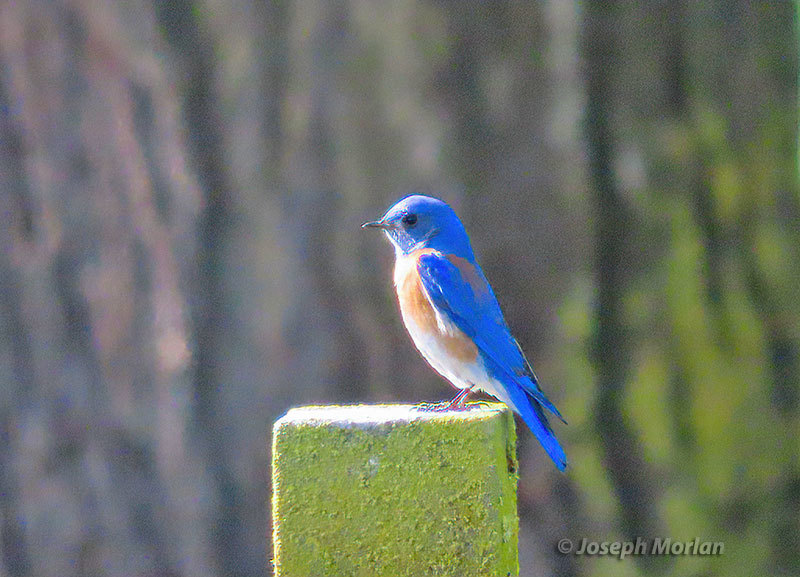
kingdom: Animalia
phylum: Chordata
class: Aves
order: Passeriformes
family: Turdidae
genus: Sialia
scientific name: Sialia mexicana
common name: Western bluebird
